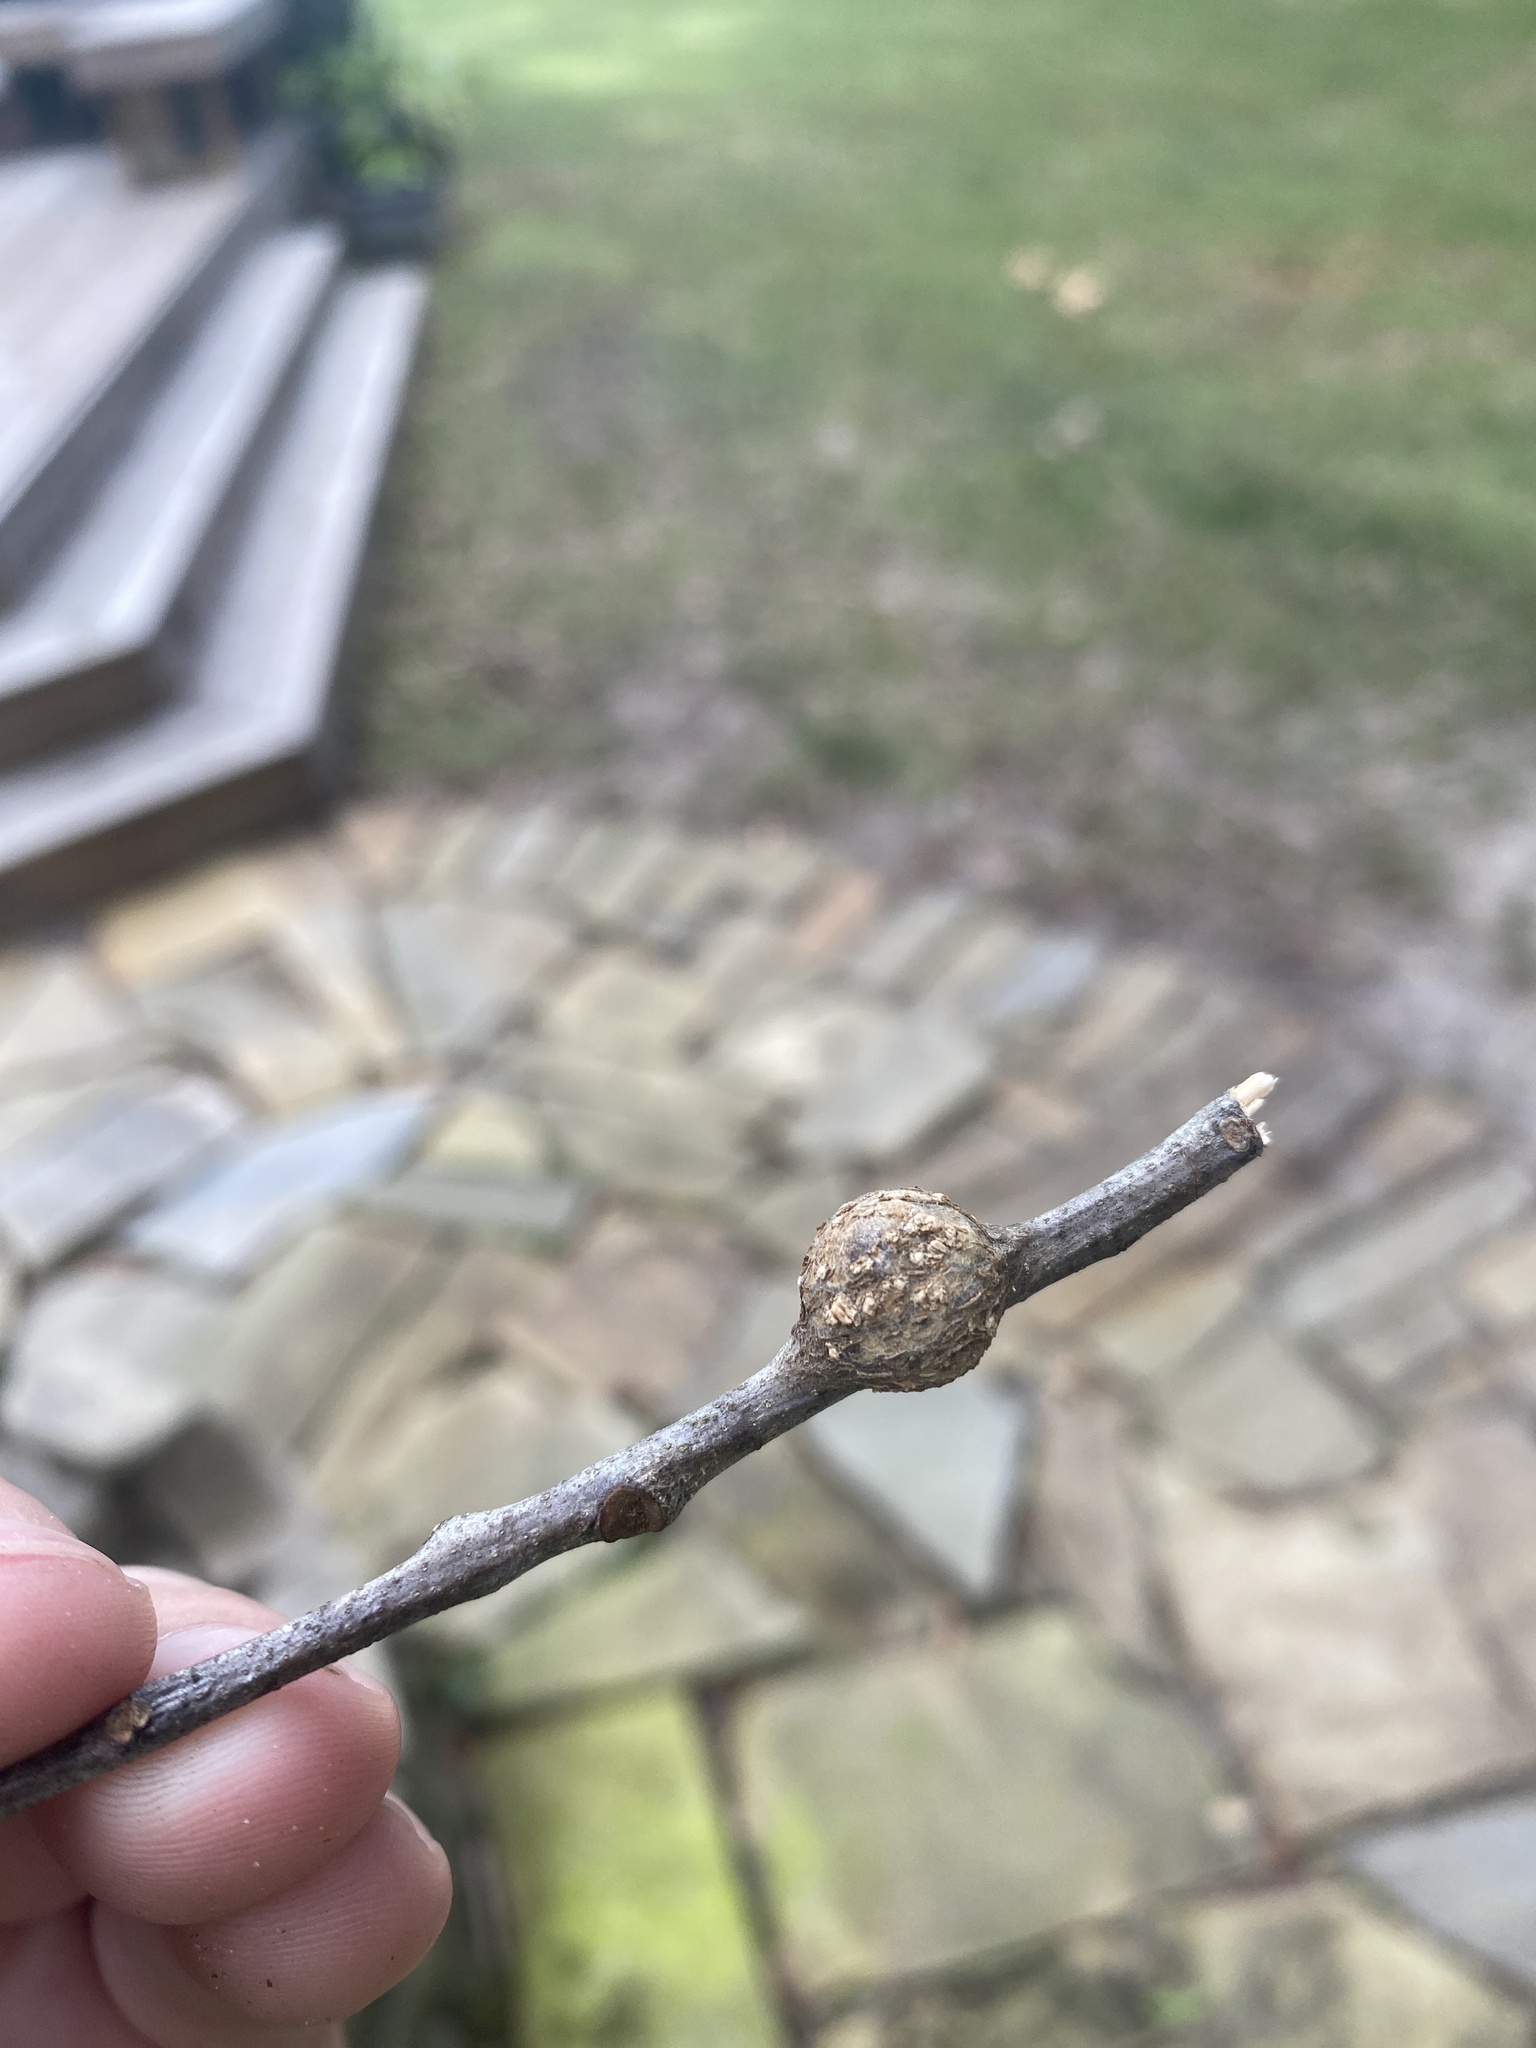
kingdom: Animalia
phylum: Arthropoda
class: Insecta
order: Hymenoptera
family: Cynipidae
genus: Zapatella
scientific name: Zapatella quercusmedullae
